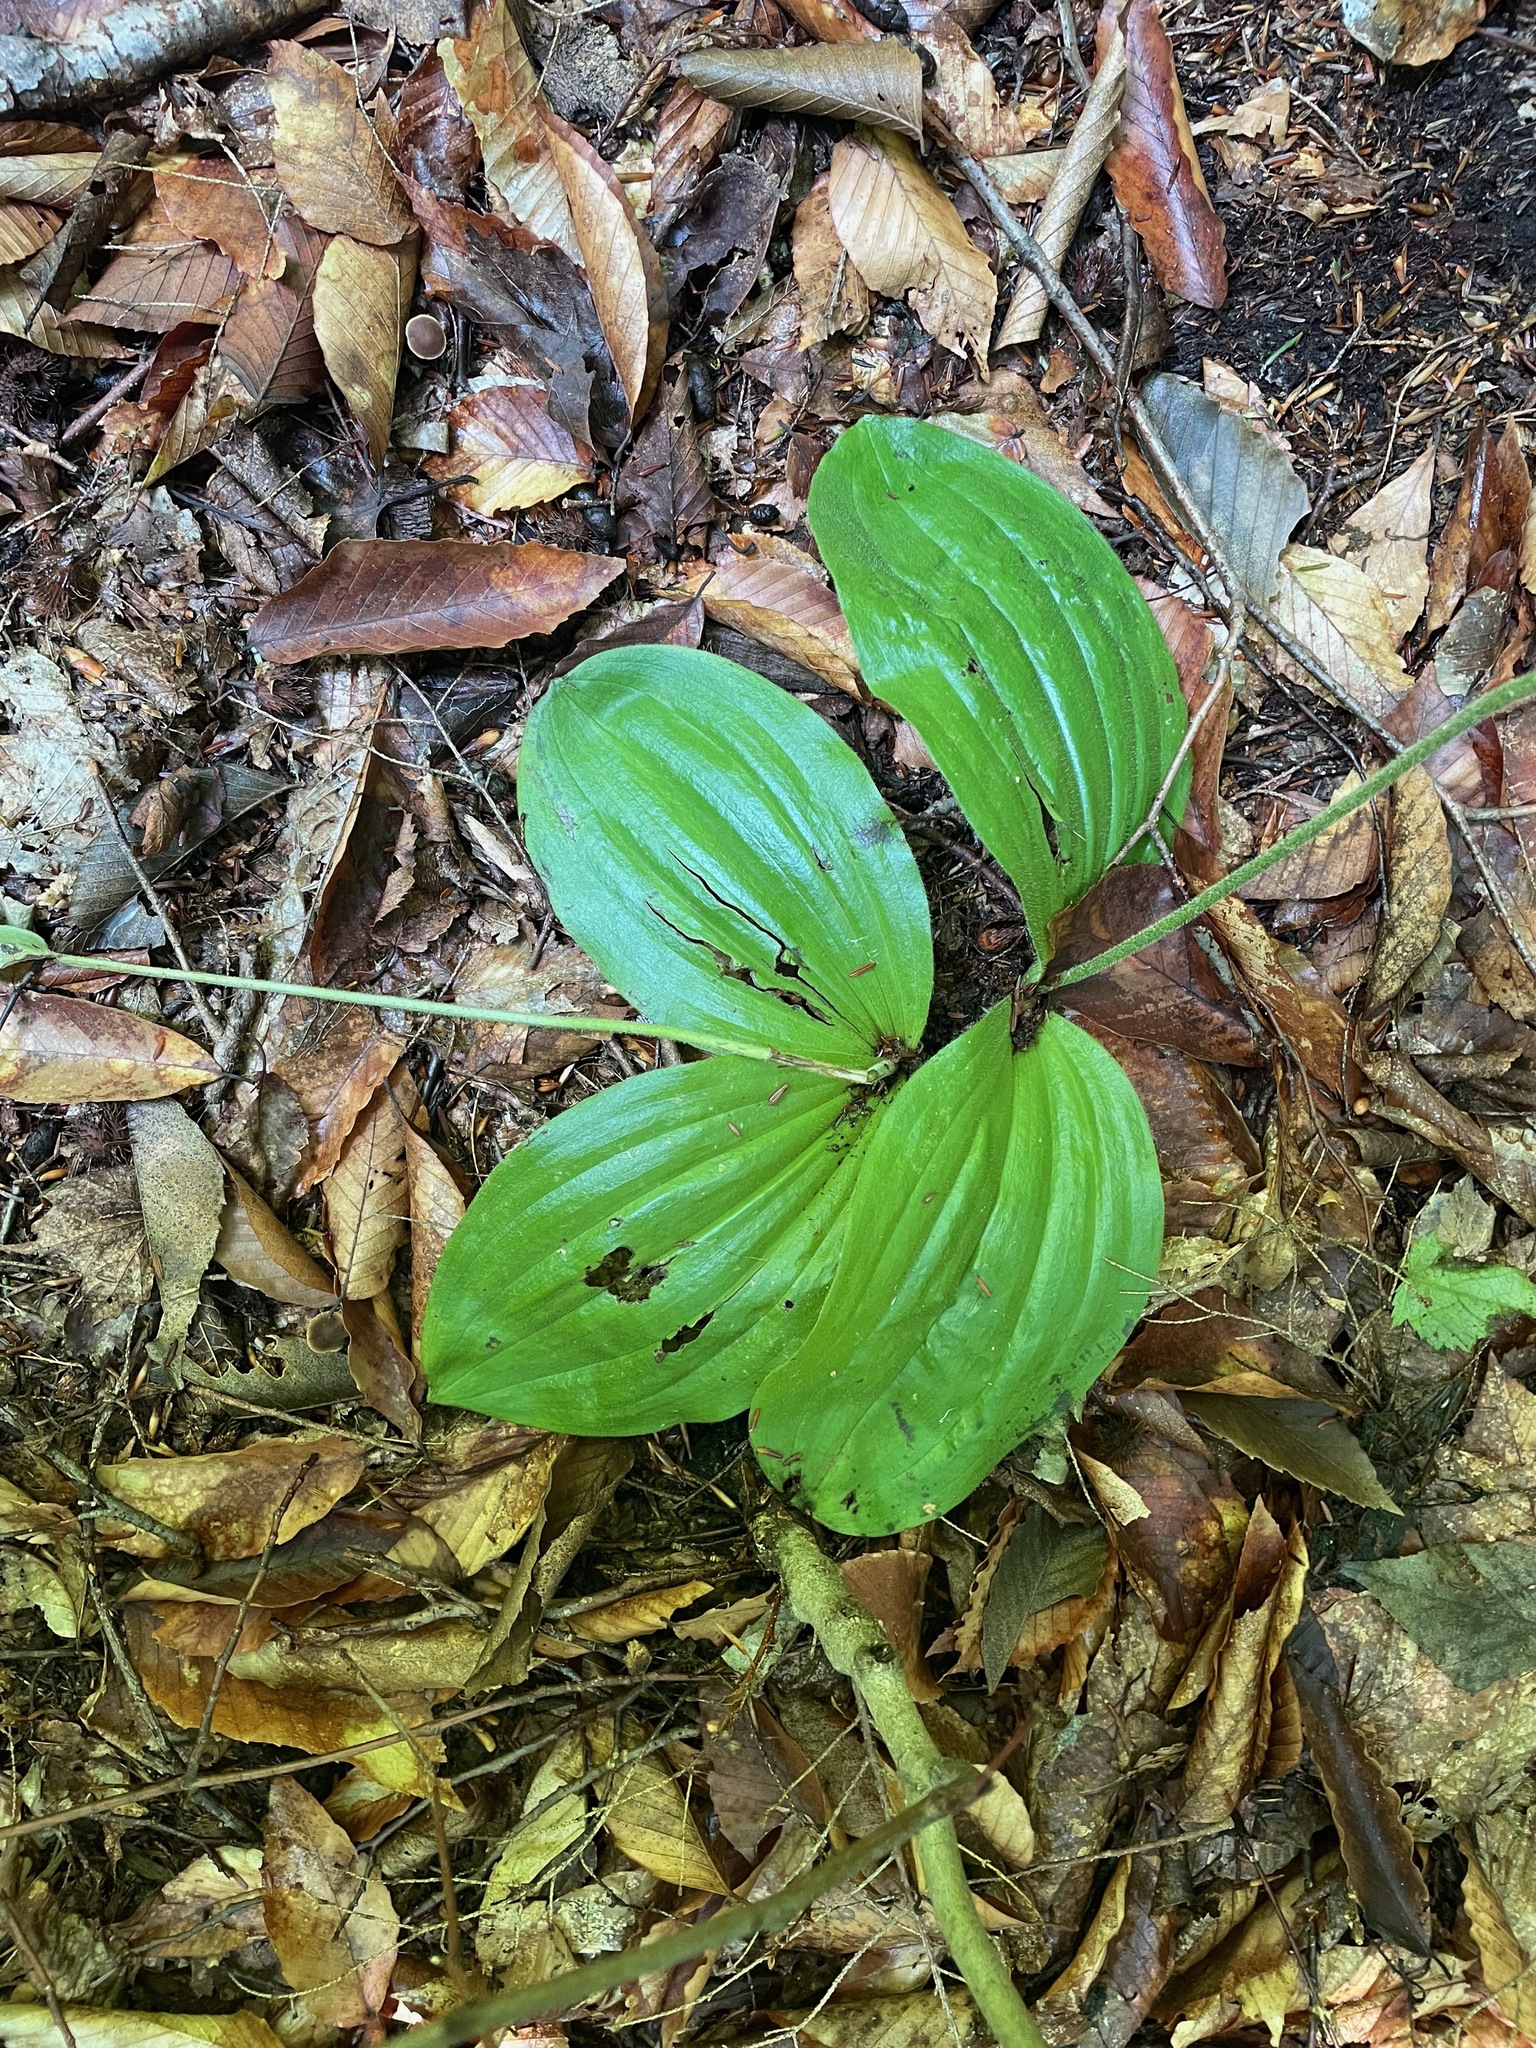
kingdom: Plantae
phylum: Tracheophyta
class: Liliopsida
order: Asparagales
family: Orchidaceae
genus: Cypripedium
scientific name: Cypripedium acaule
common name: Pink lady's-slipper
